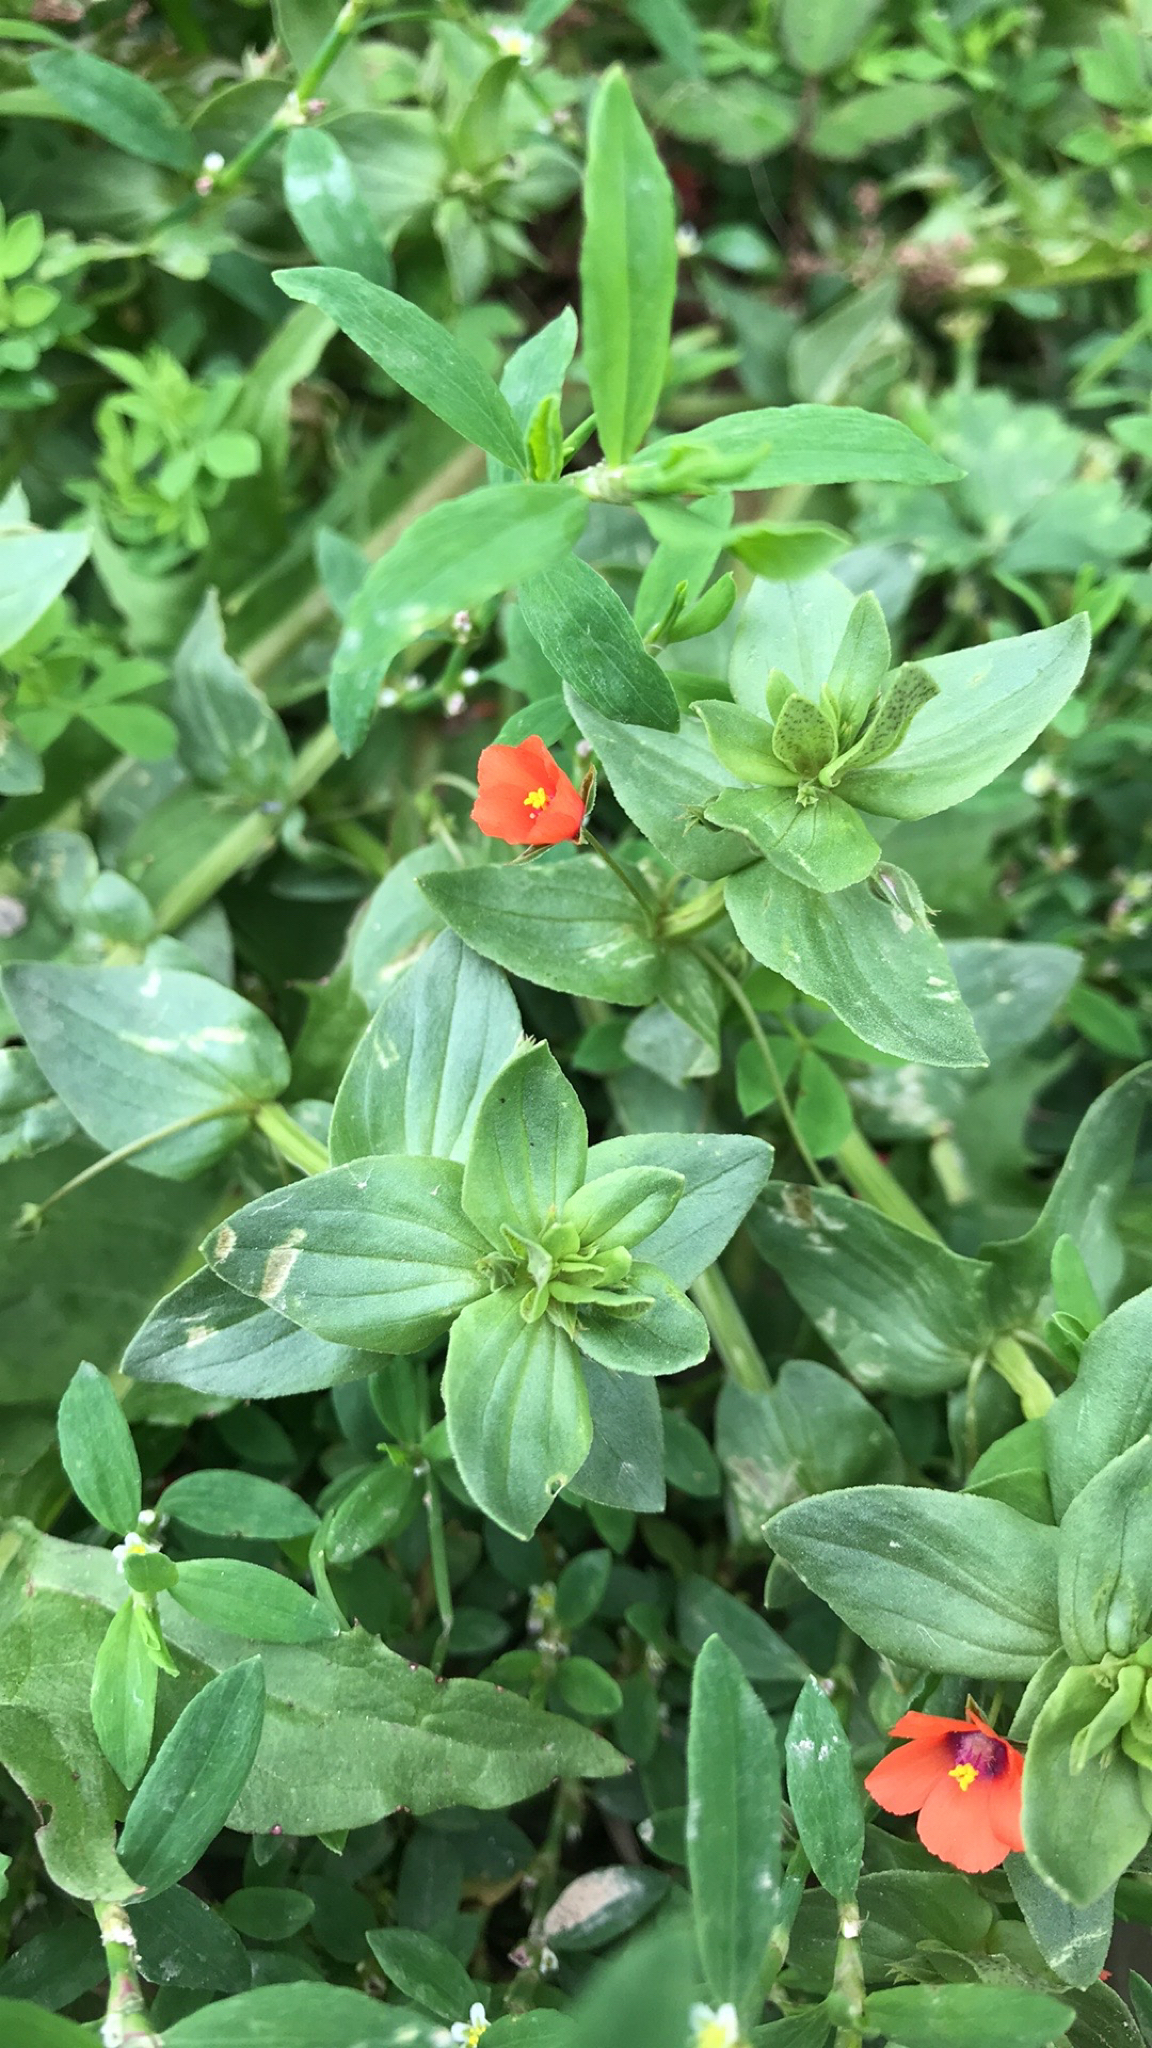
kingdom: Plantae
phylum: Tracheophyta
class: Magnoliopsida
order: Ericales
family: Primulaceae
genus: Lysimachia
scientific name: Lysimachia arvensis
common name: Scarlet pimpernel
